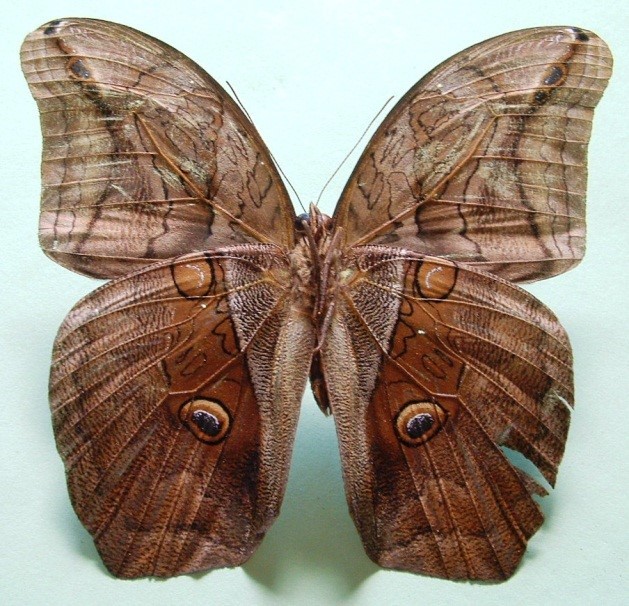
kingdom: Animalia
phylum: Arthropoda
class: Insecta
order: Lepidoptera
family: Nymphalidae
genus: Eryphanis
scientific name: Eryphanis lycomedon
